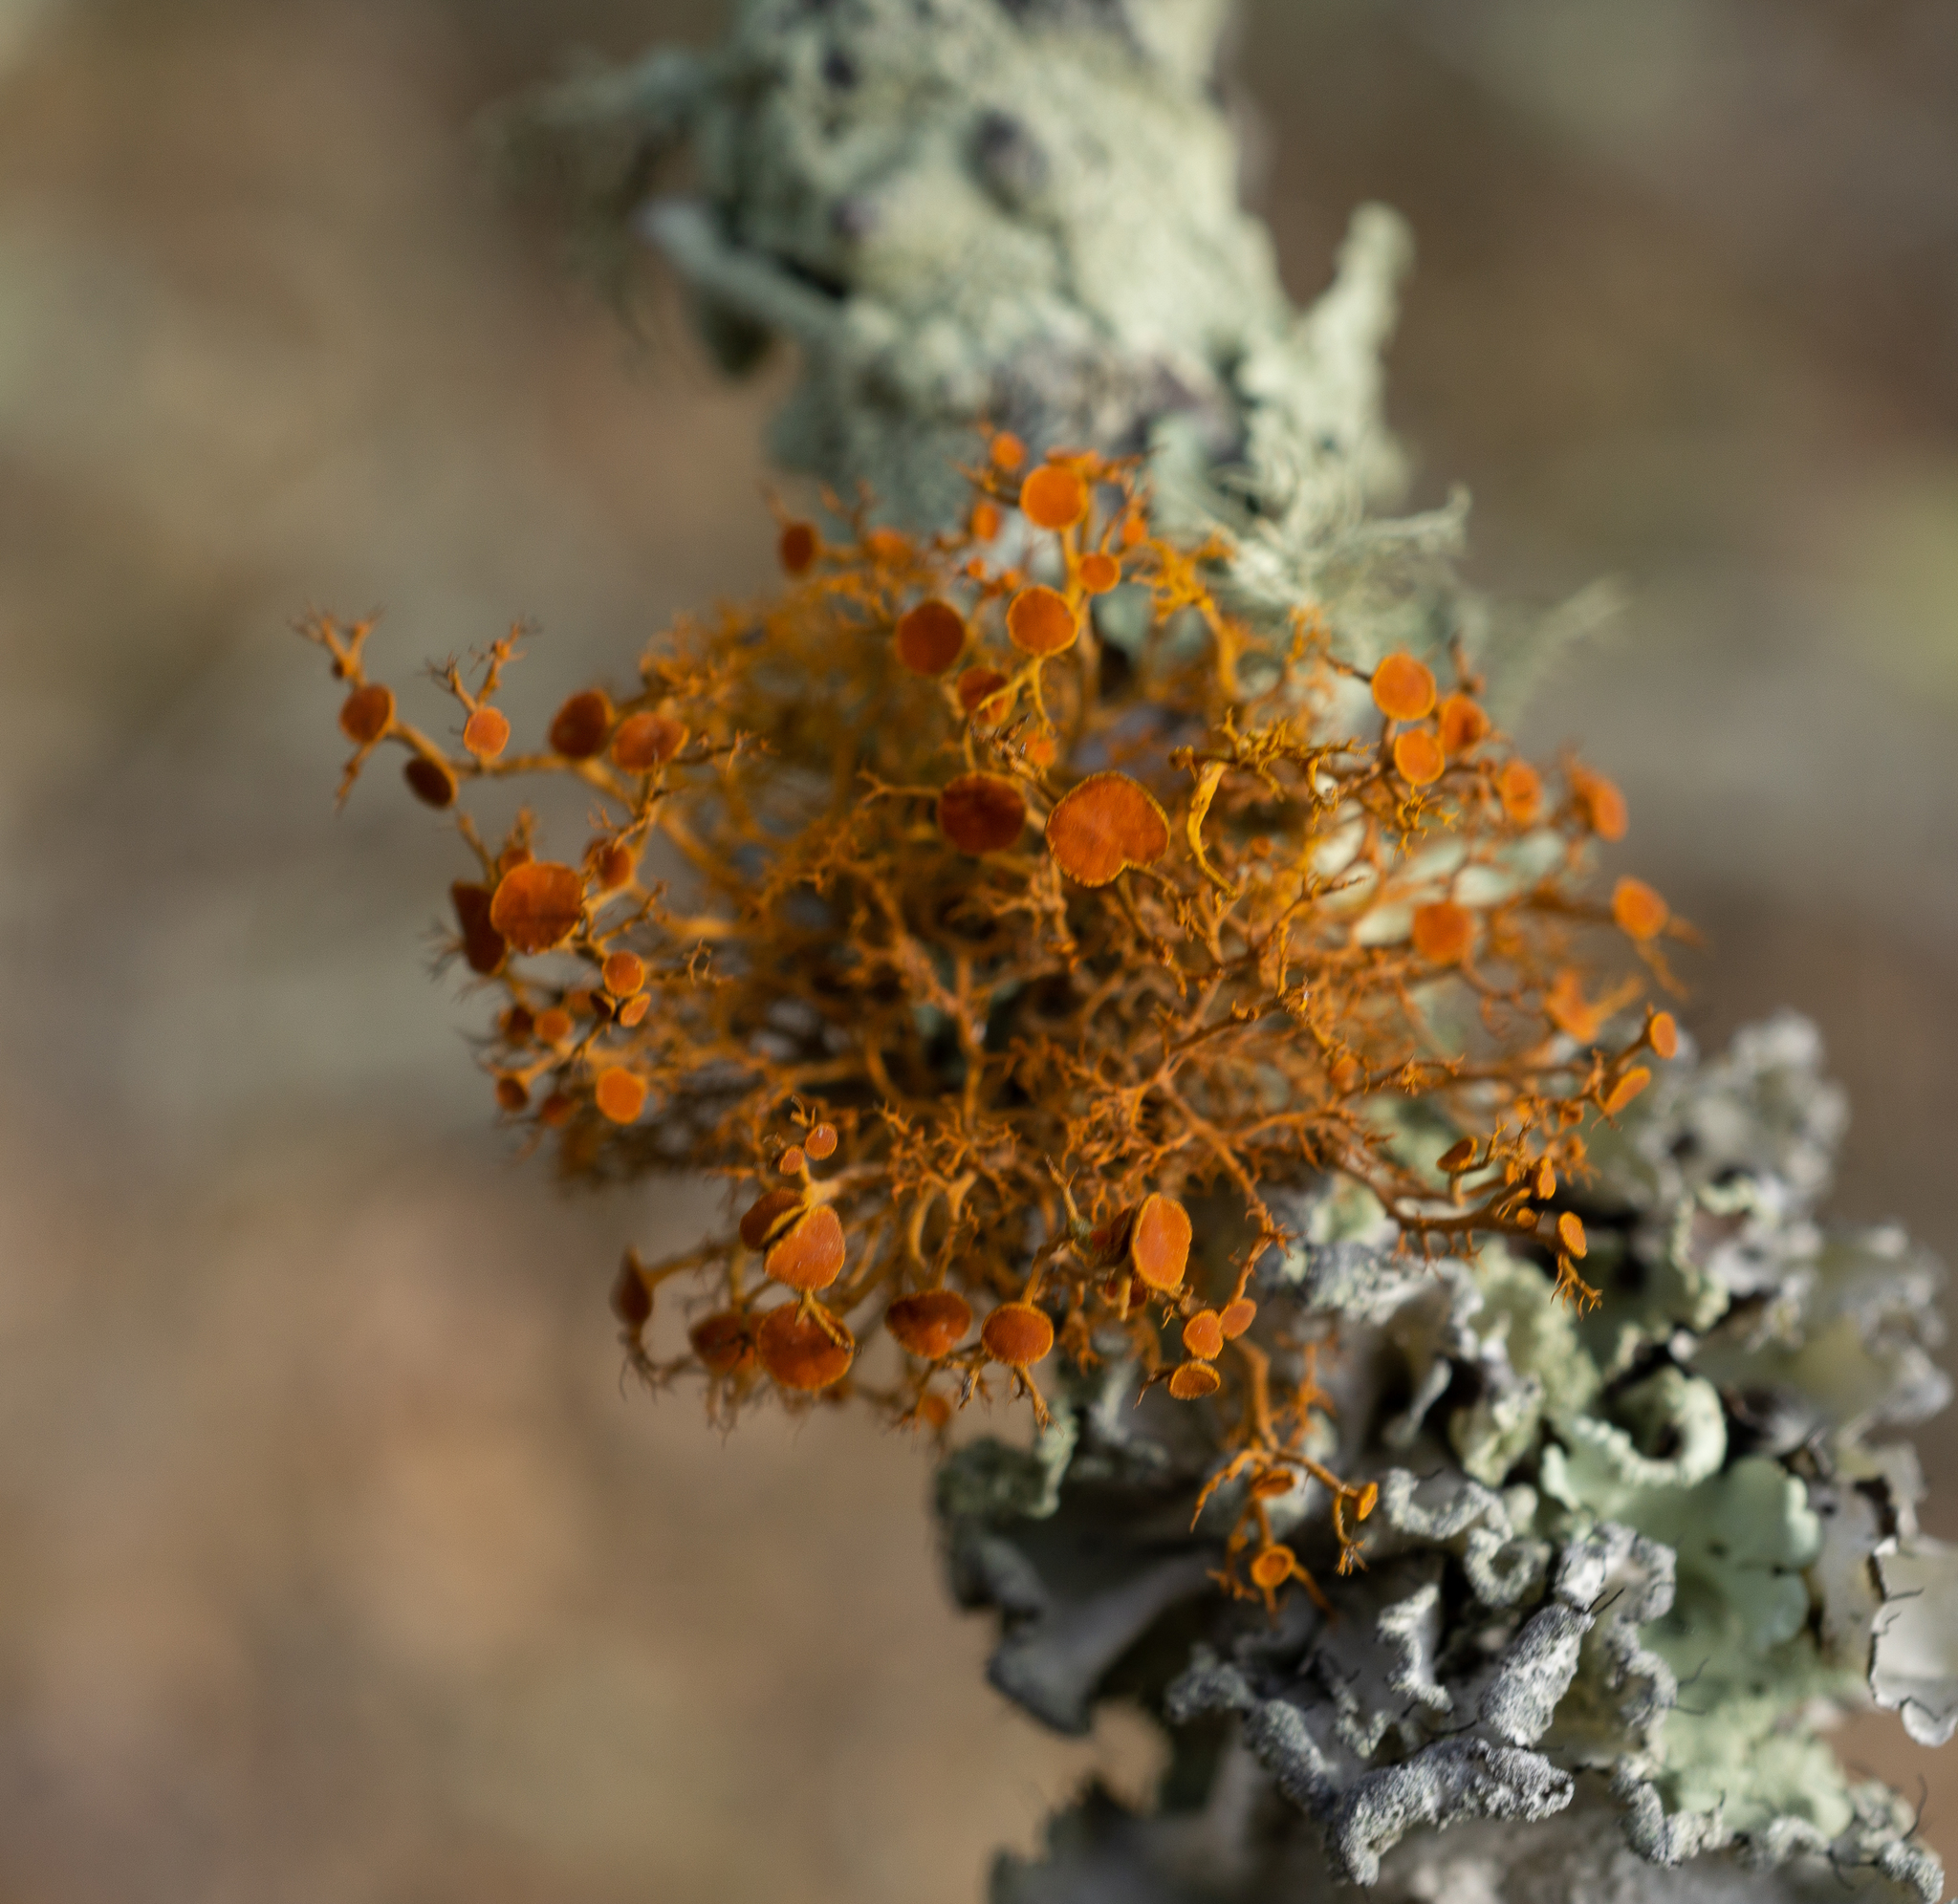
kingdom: Fungi
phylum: Ascomycota
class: Lecanoromycetes
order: Teloschistales
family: Teloschistaceae
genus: Teloschistes
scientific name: Teloschistes flavicans
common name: Golden hair-lichen
